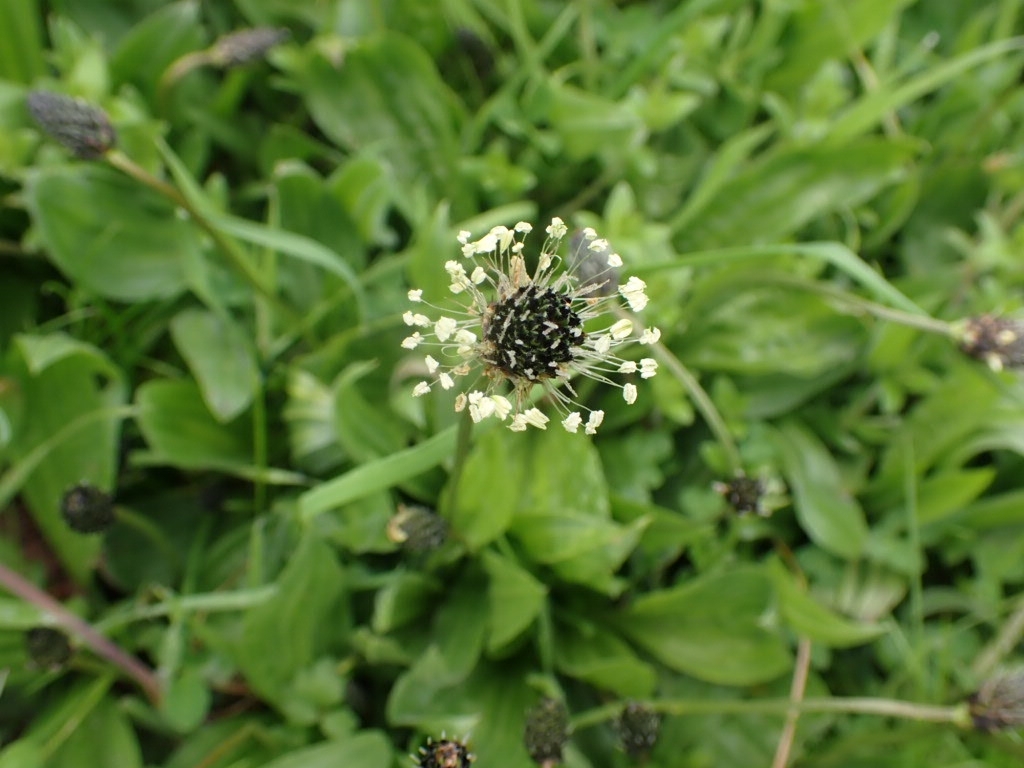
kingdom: Plantae
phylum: Tracheophyta
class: Magnoliopsida
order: Lamiales
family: Plantaginaceae
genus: Plantago
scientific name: Plantago lanceolata
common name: Ribwort plantain
